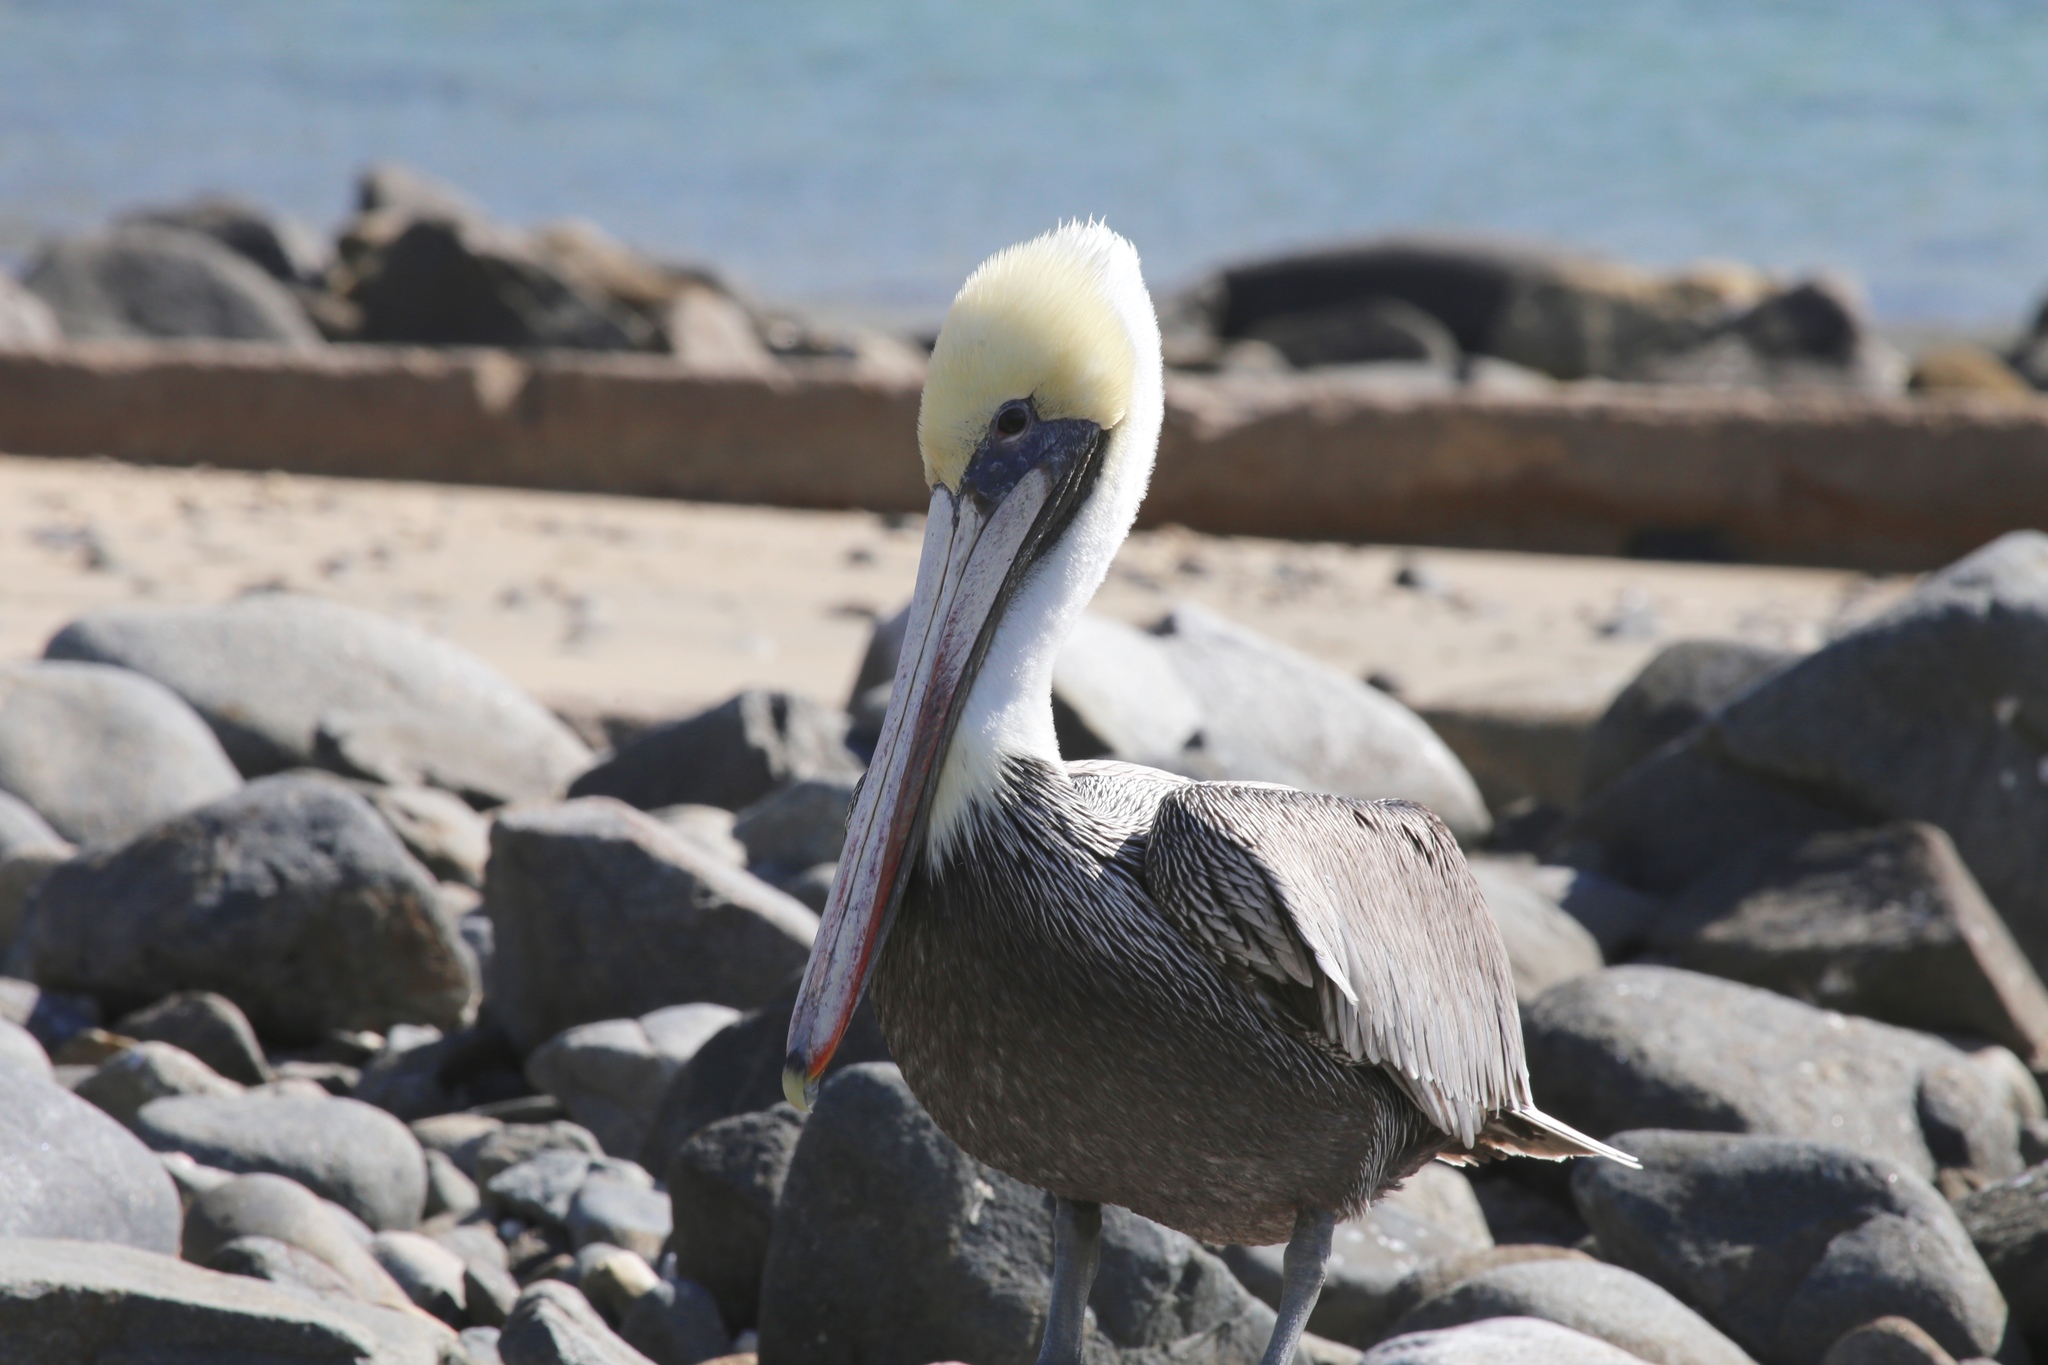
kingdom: Animalia
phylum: Chordata
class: Aves
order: Pelecaniformes
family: Pelecanidae
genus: Pelecanus
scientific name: Pelecanus occidentalis
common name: Brown pelican
